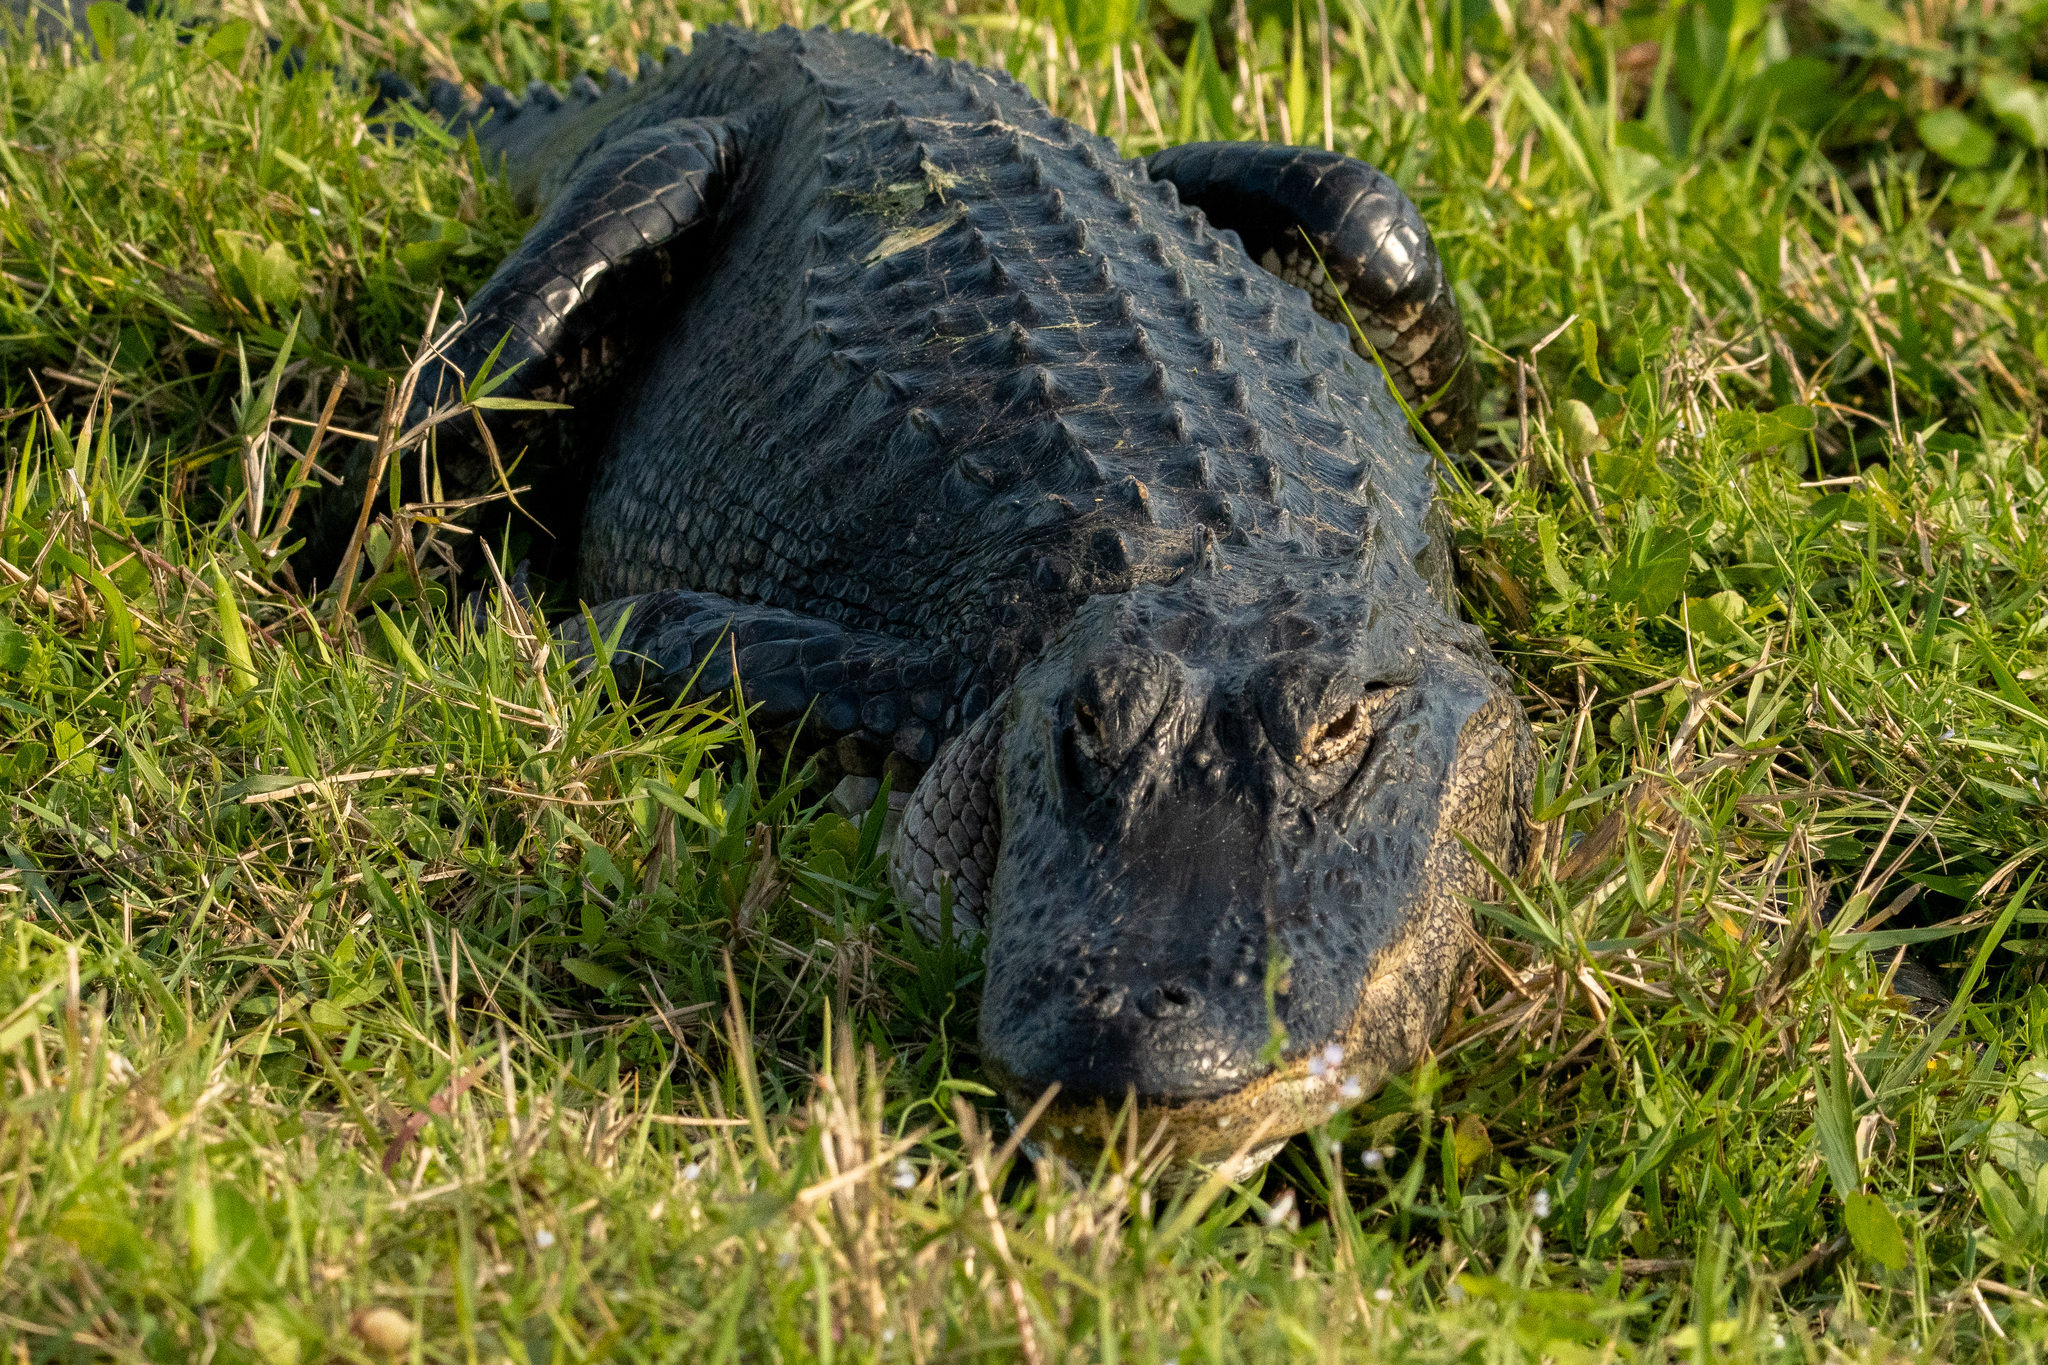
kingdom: Animalia
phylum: Chordata
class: Crocodylia
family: Alligatoridae
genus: Alligator
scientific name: Alligator mississippiensis
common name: American alligator
